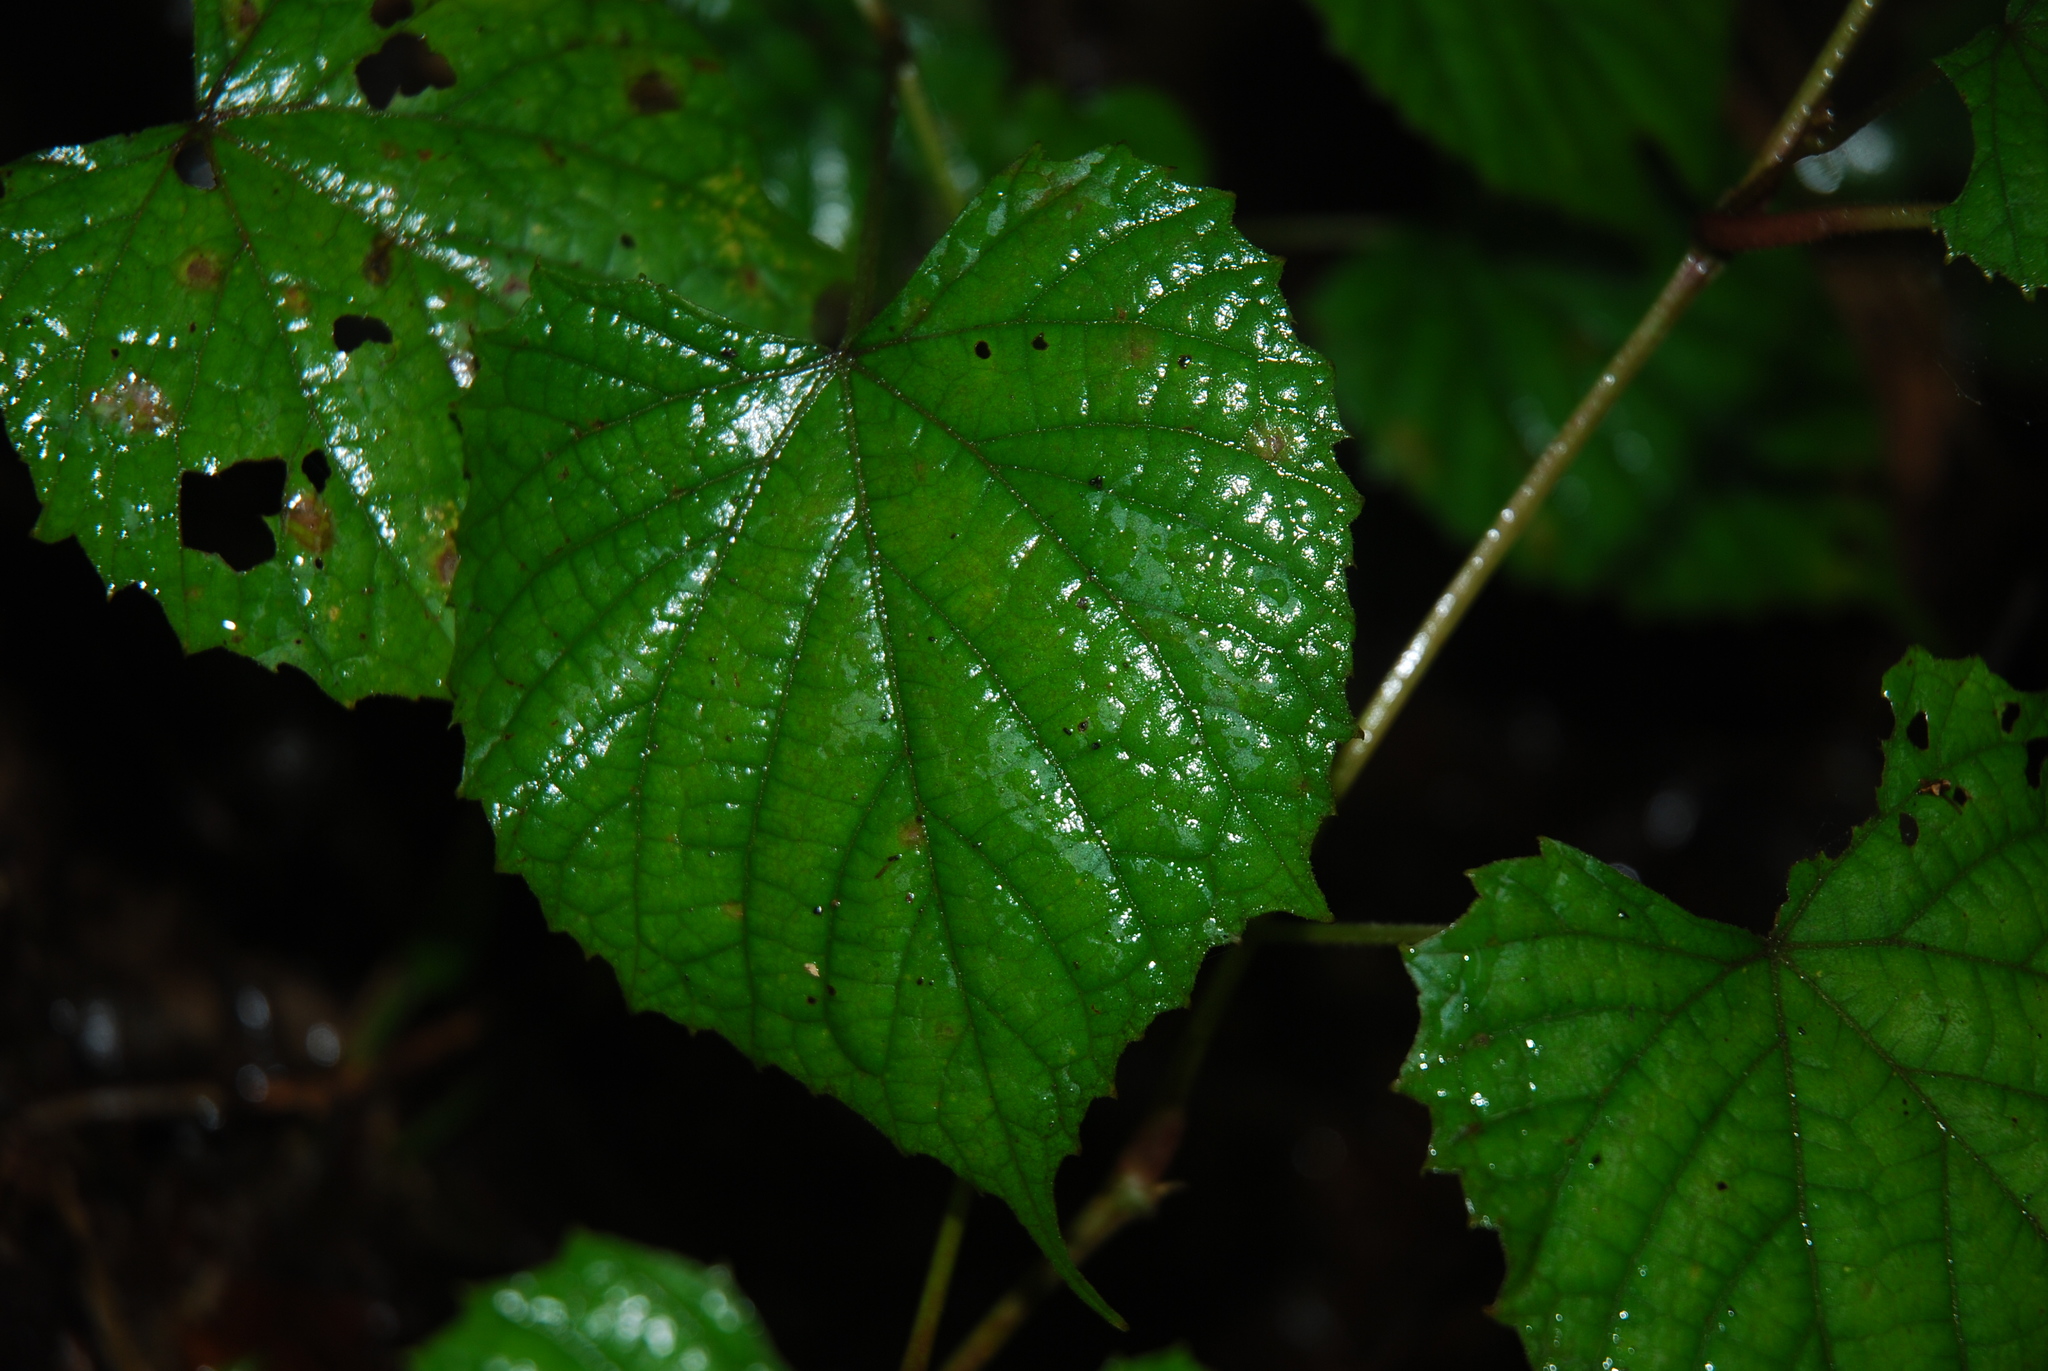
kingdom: Plantae
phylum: Tracheophyta
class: Magnoliopsida
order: Vitales
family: Vitaceae
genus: Vitis
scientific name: Vitis tiliifolia
